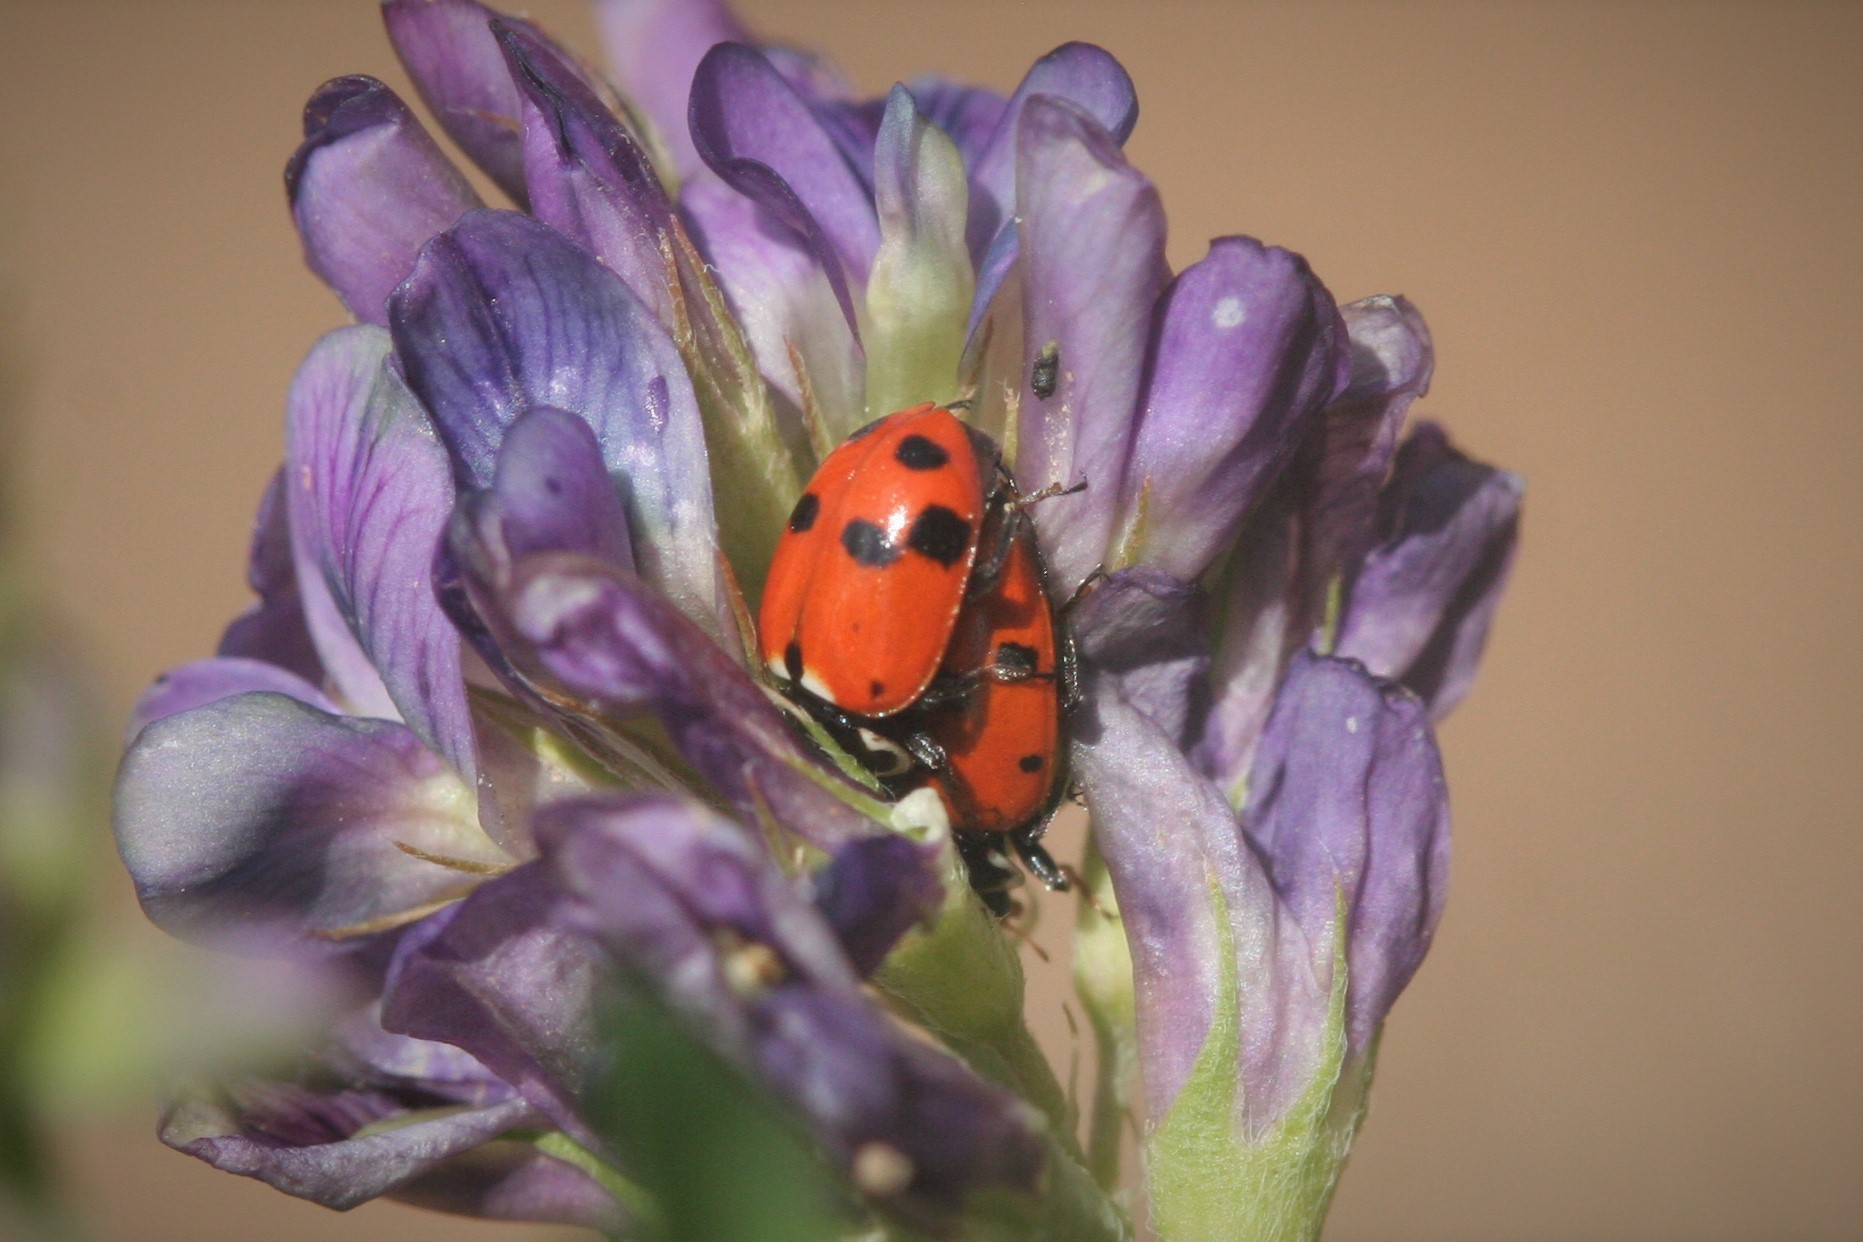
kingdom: Animalia
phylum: Arthropoda
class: Insecta
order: Coleoptera
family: Coccinellidae
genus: Hippodamia
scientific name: Hippodamia variegata
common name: Ladybird beetle
